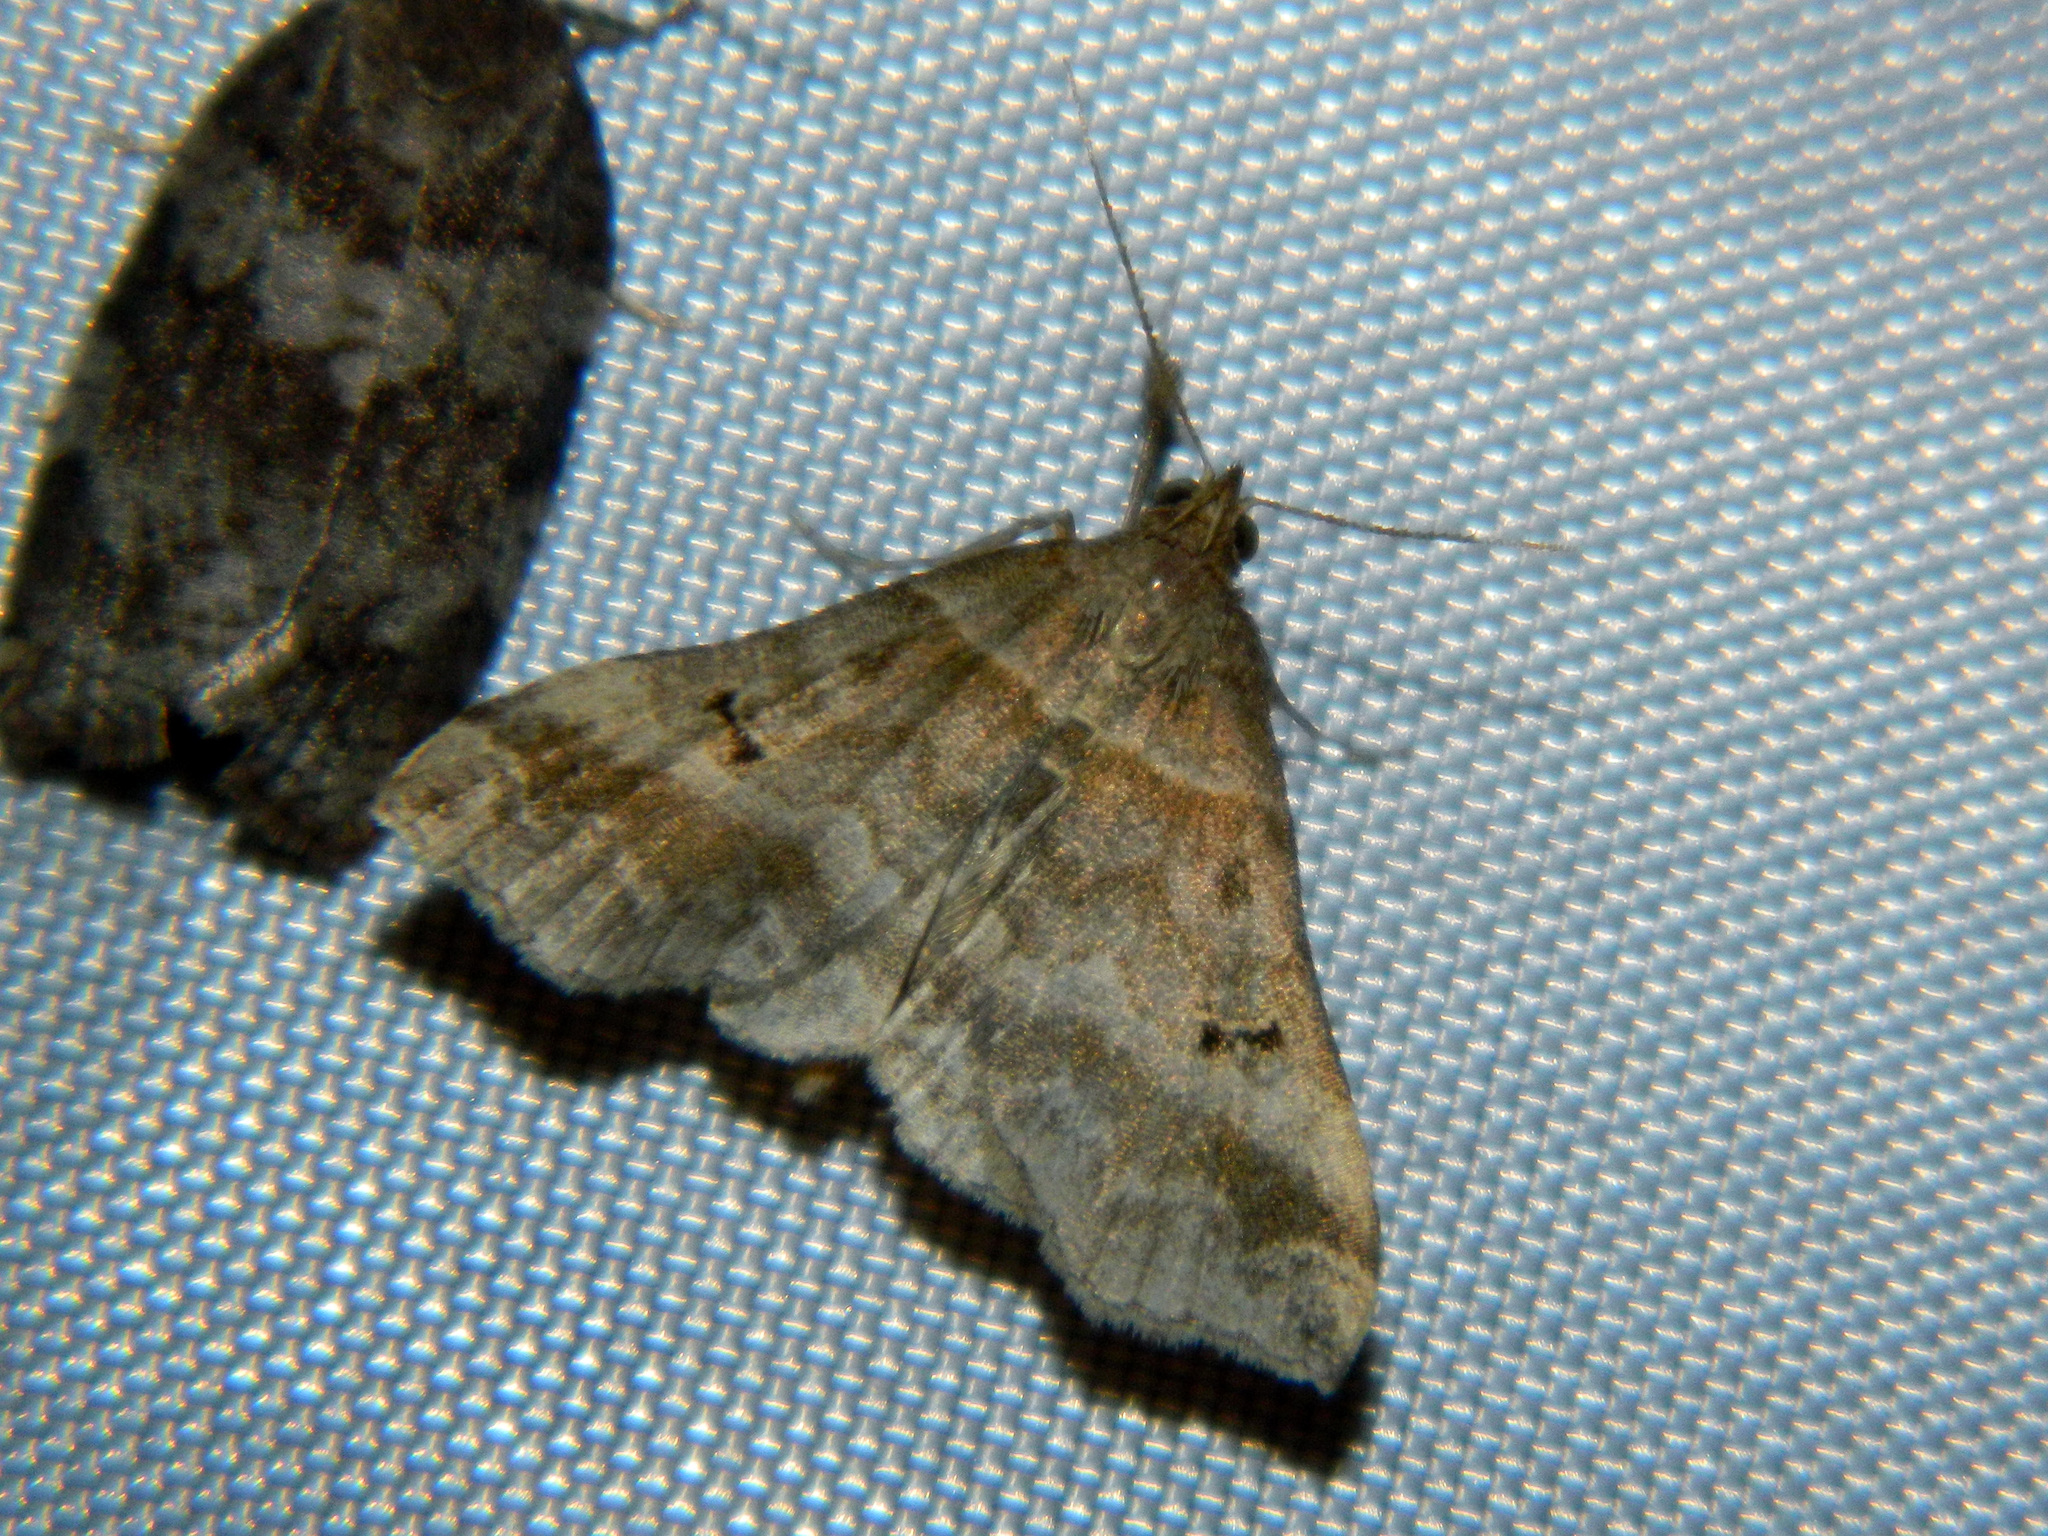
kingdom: Animalia
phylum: Arthropoda
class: Insecta
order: Lepidoptera
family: Erebidae
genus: Phaeolita
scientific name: Phaeolita pyramusalis
